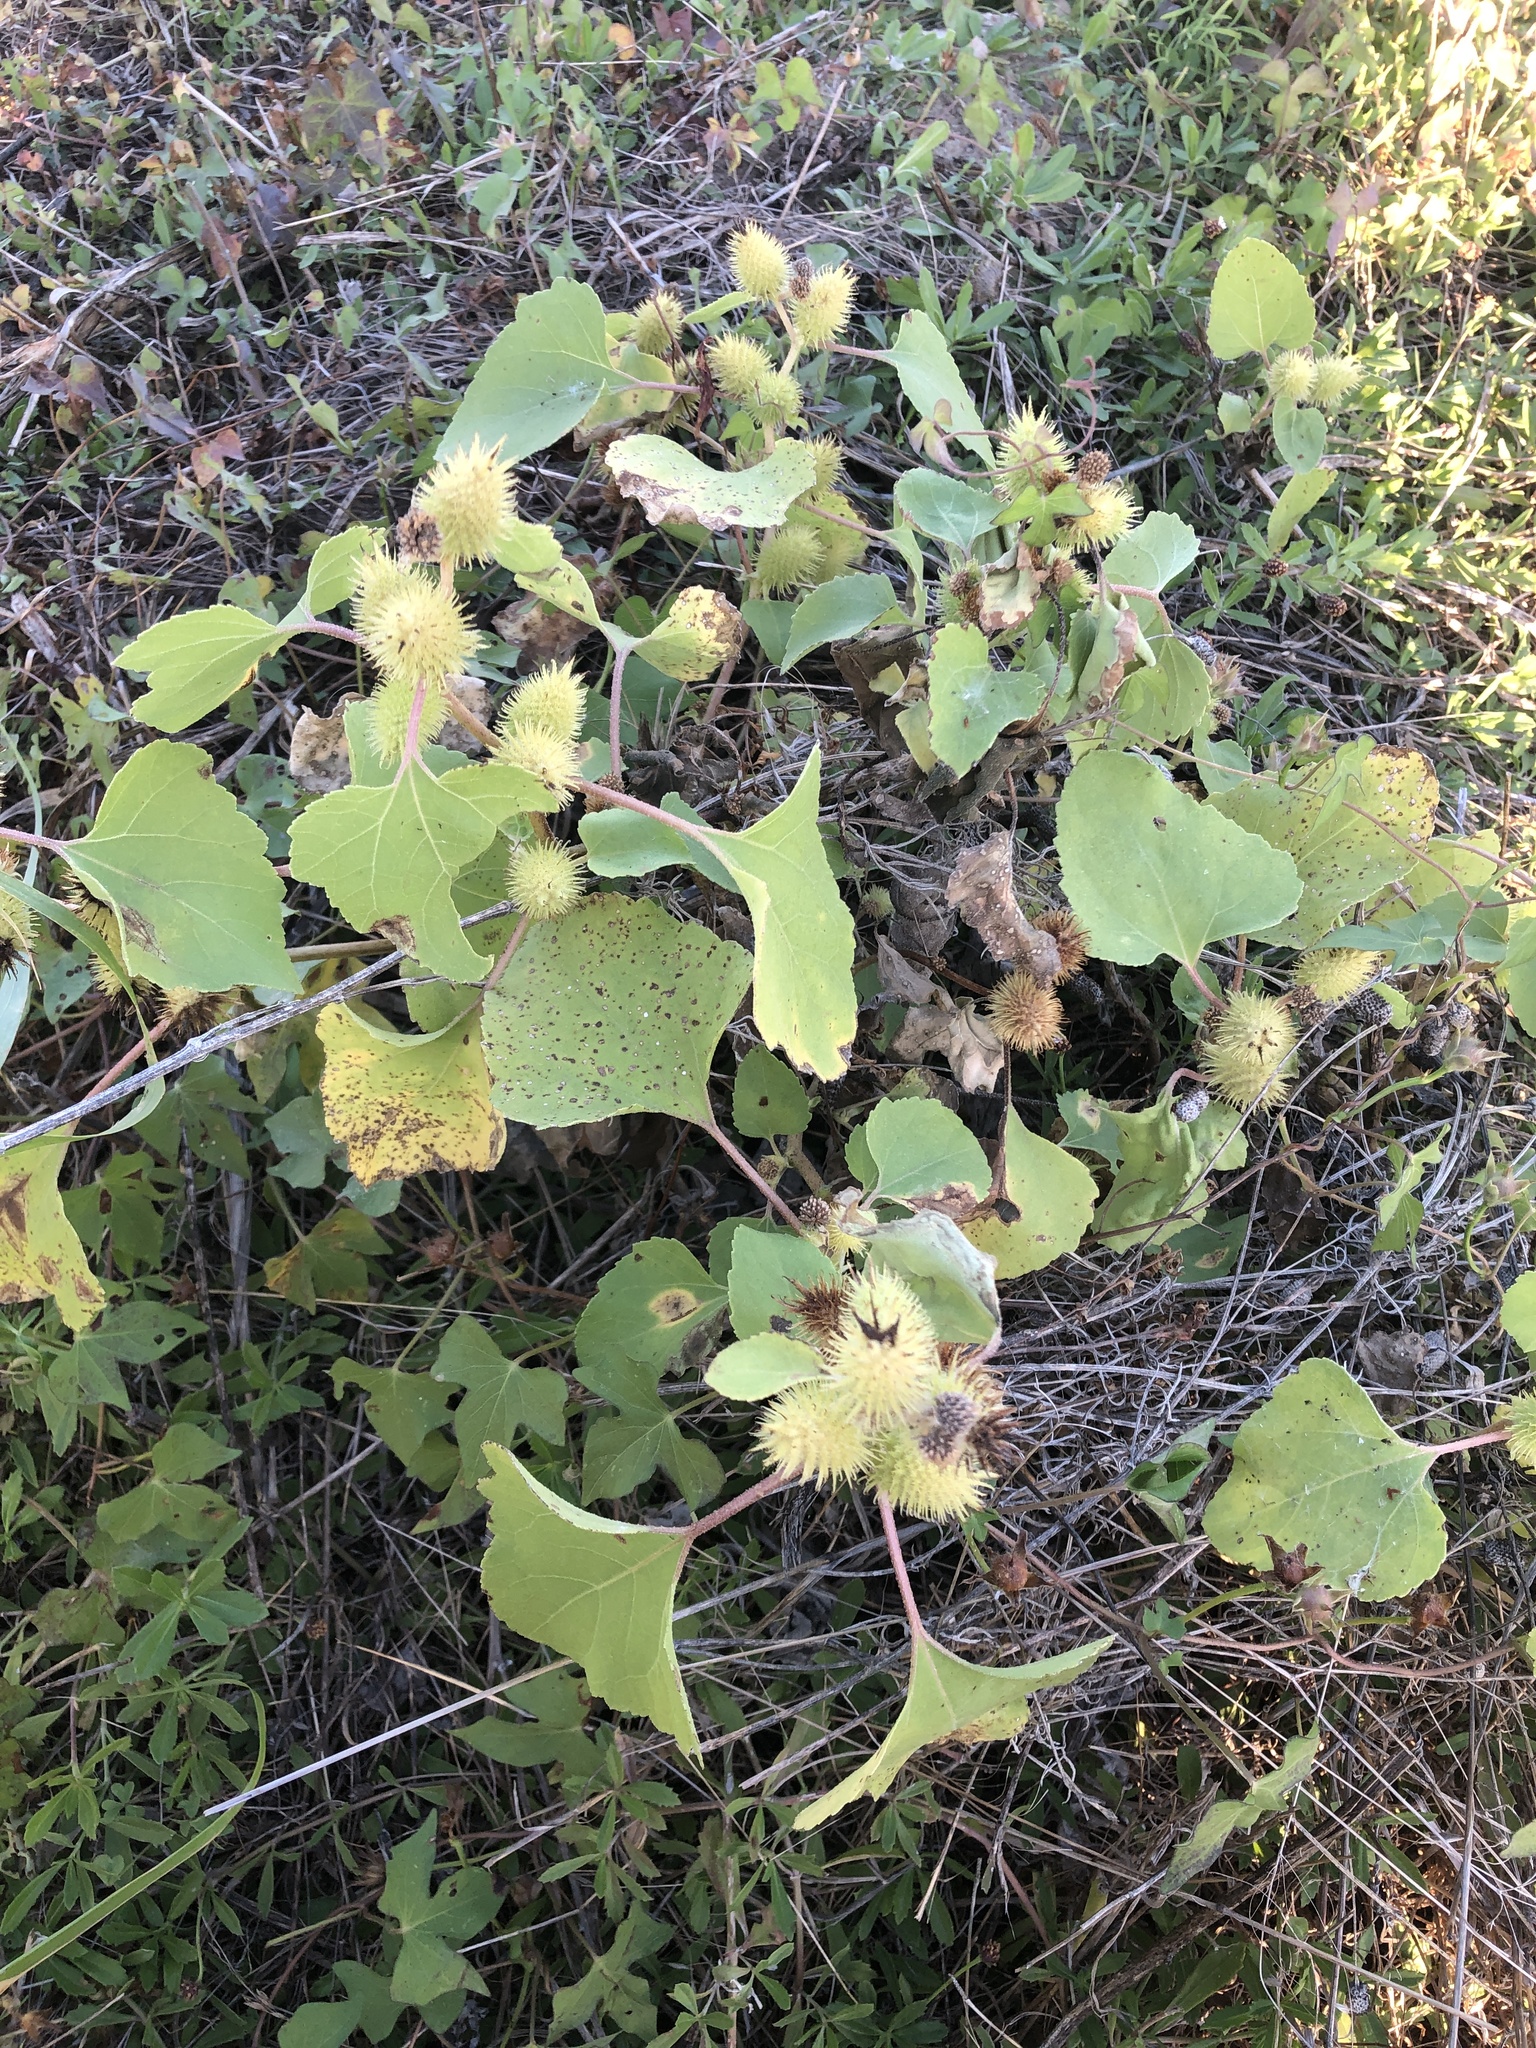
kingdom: Plantae
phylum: Tracheophyta
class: Magnoliopsida
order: Asterales
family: Asteraceae
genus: Xanthium
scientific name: Xanthium strumarium
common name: Rough cocklebur
